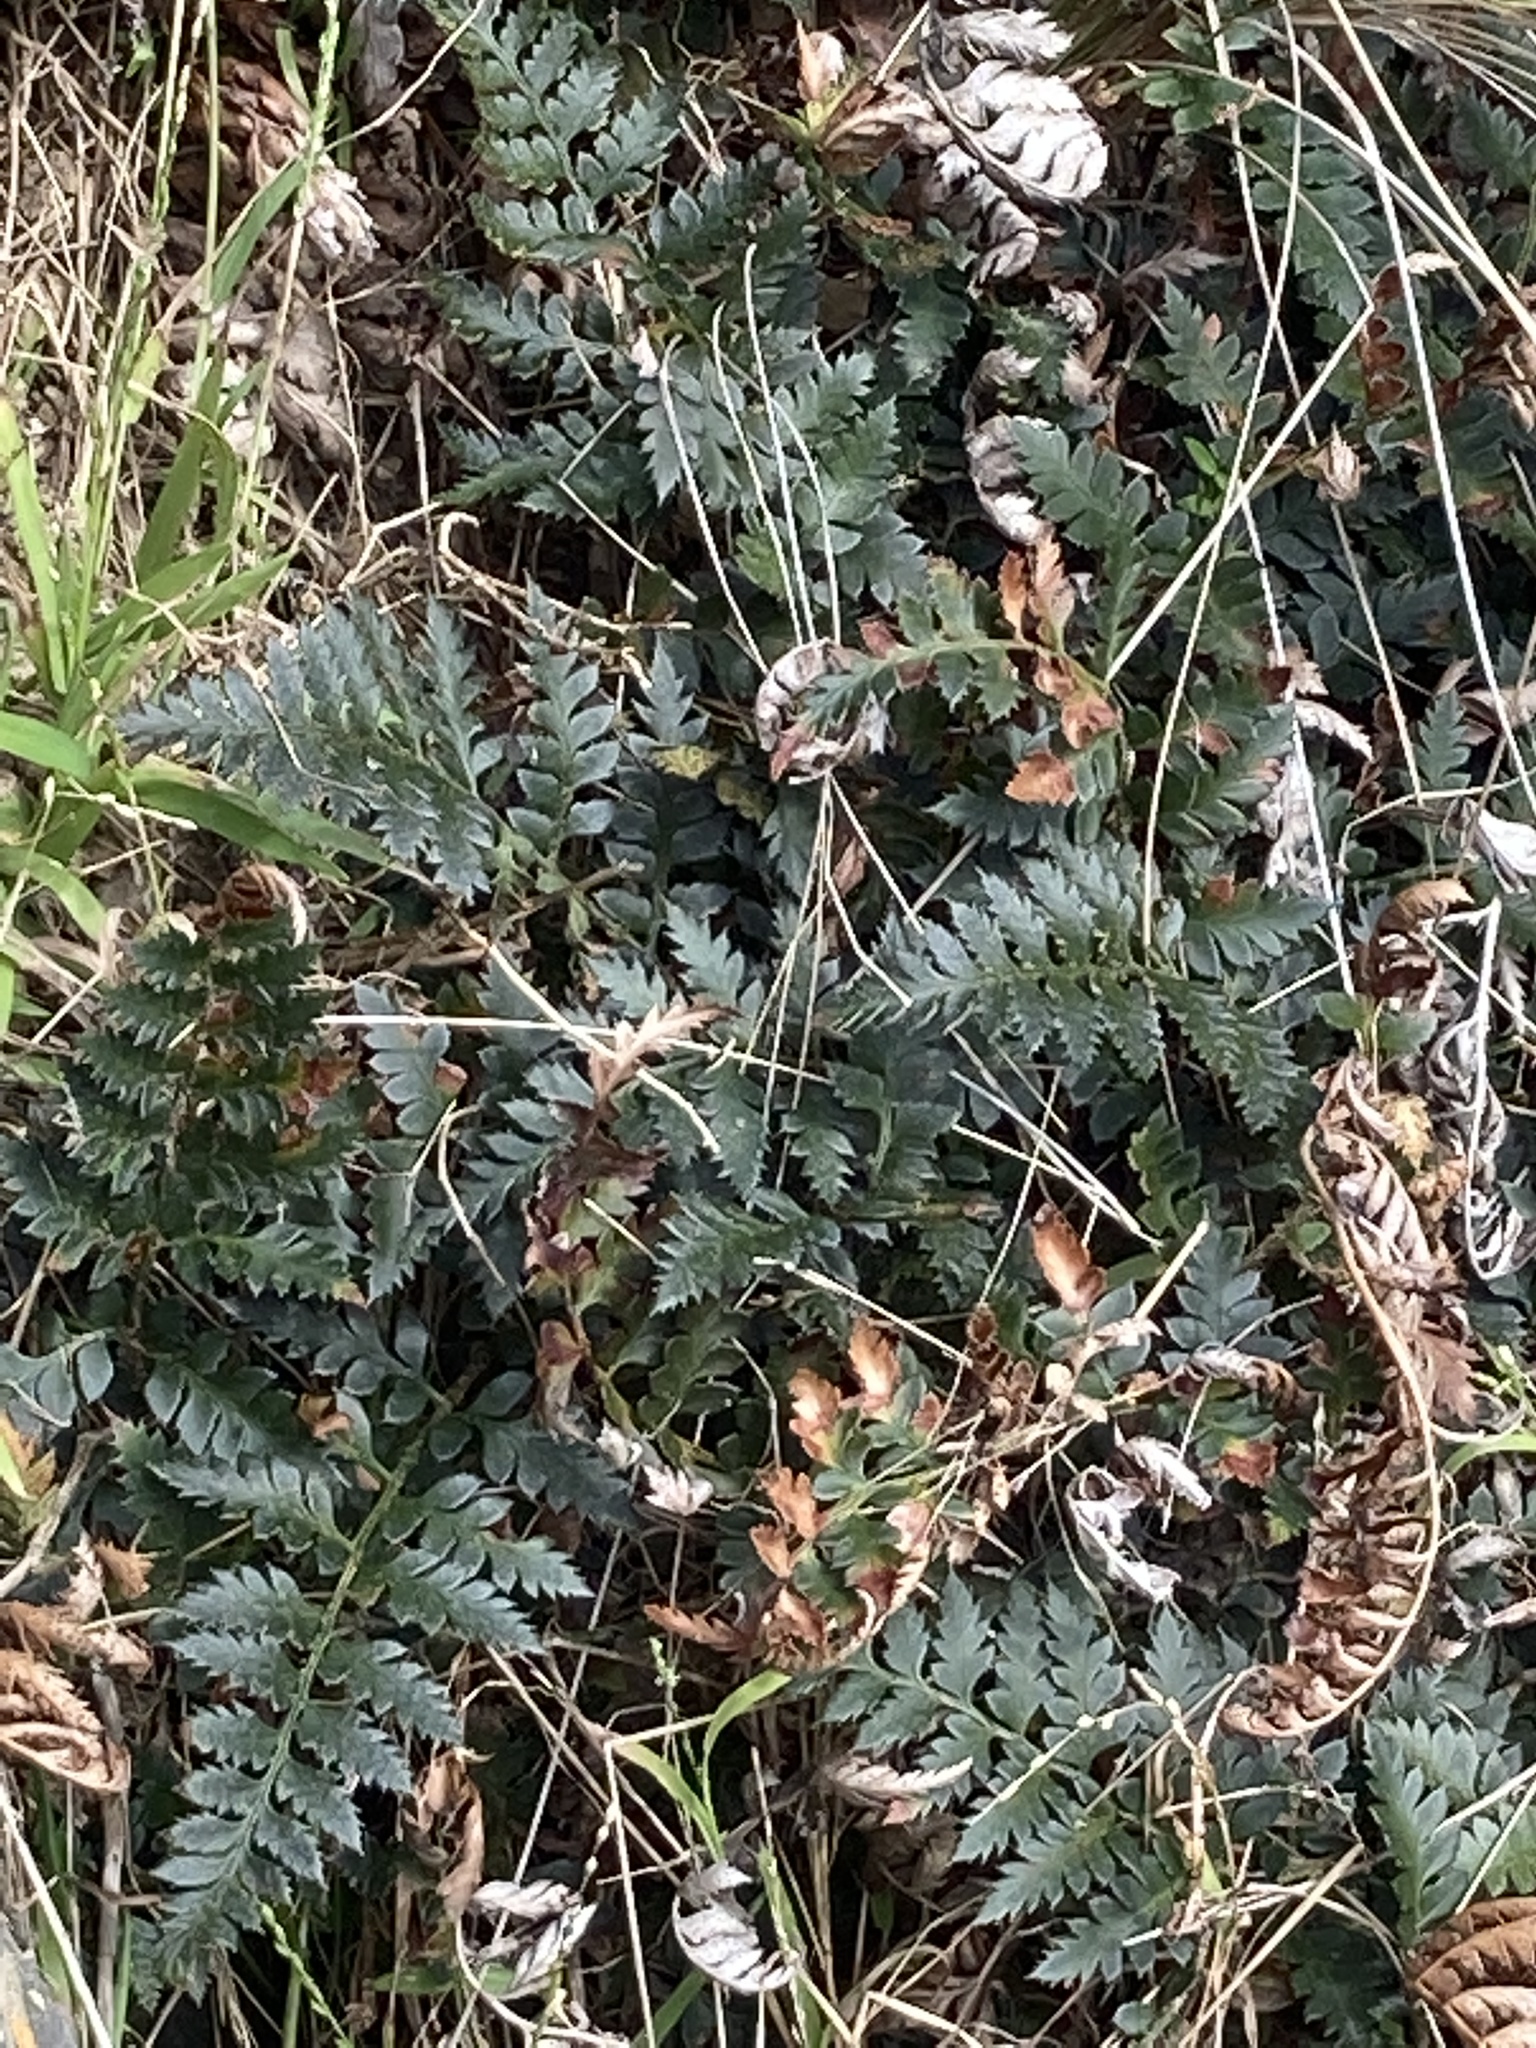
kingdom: Plantae
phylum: Tracheophyta
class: Polypodiopsida
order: Polypodiales
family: Dryopteridaceae
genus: Polystichum
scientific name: Polystichum oculatum
